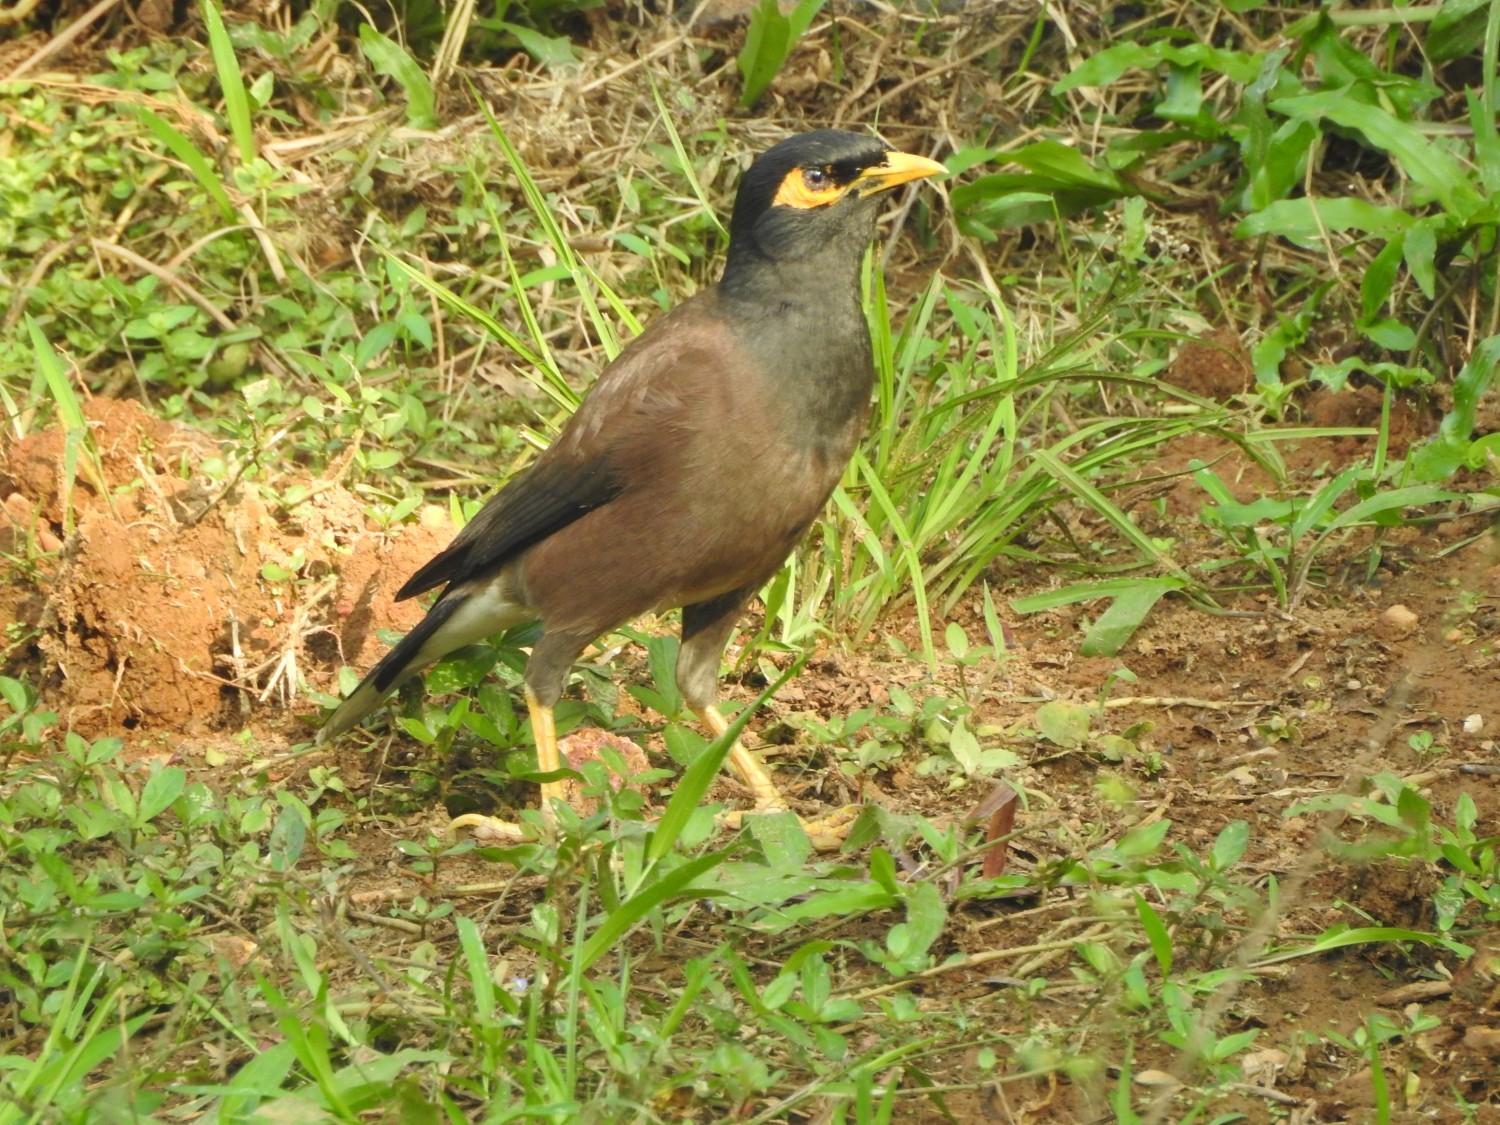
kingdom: Animalia
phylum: Chordata
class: Aves
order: Passeriformes
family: Sturnidae
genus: Acridotheres
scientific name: Acridotheres tristis
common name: Common myna
